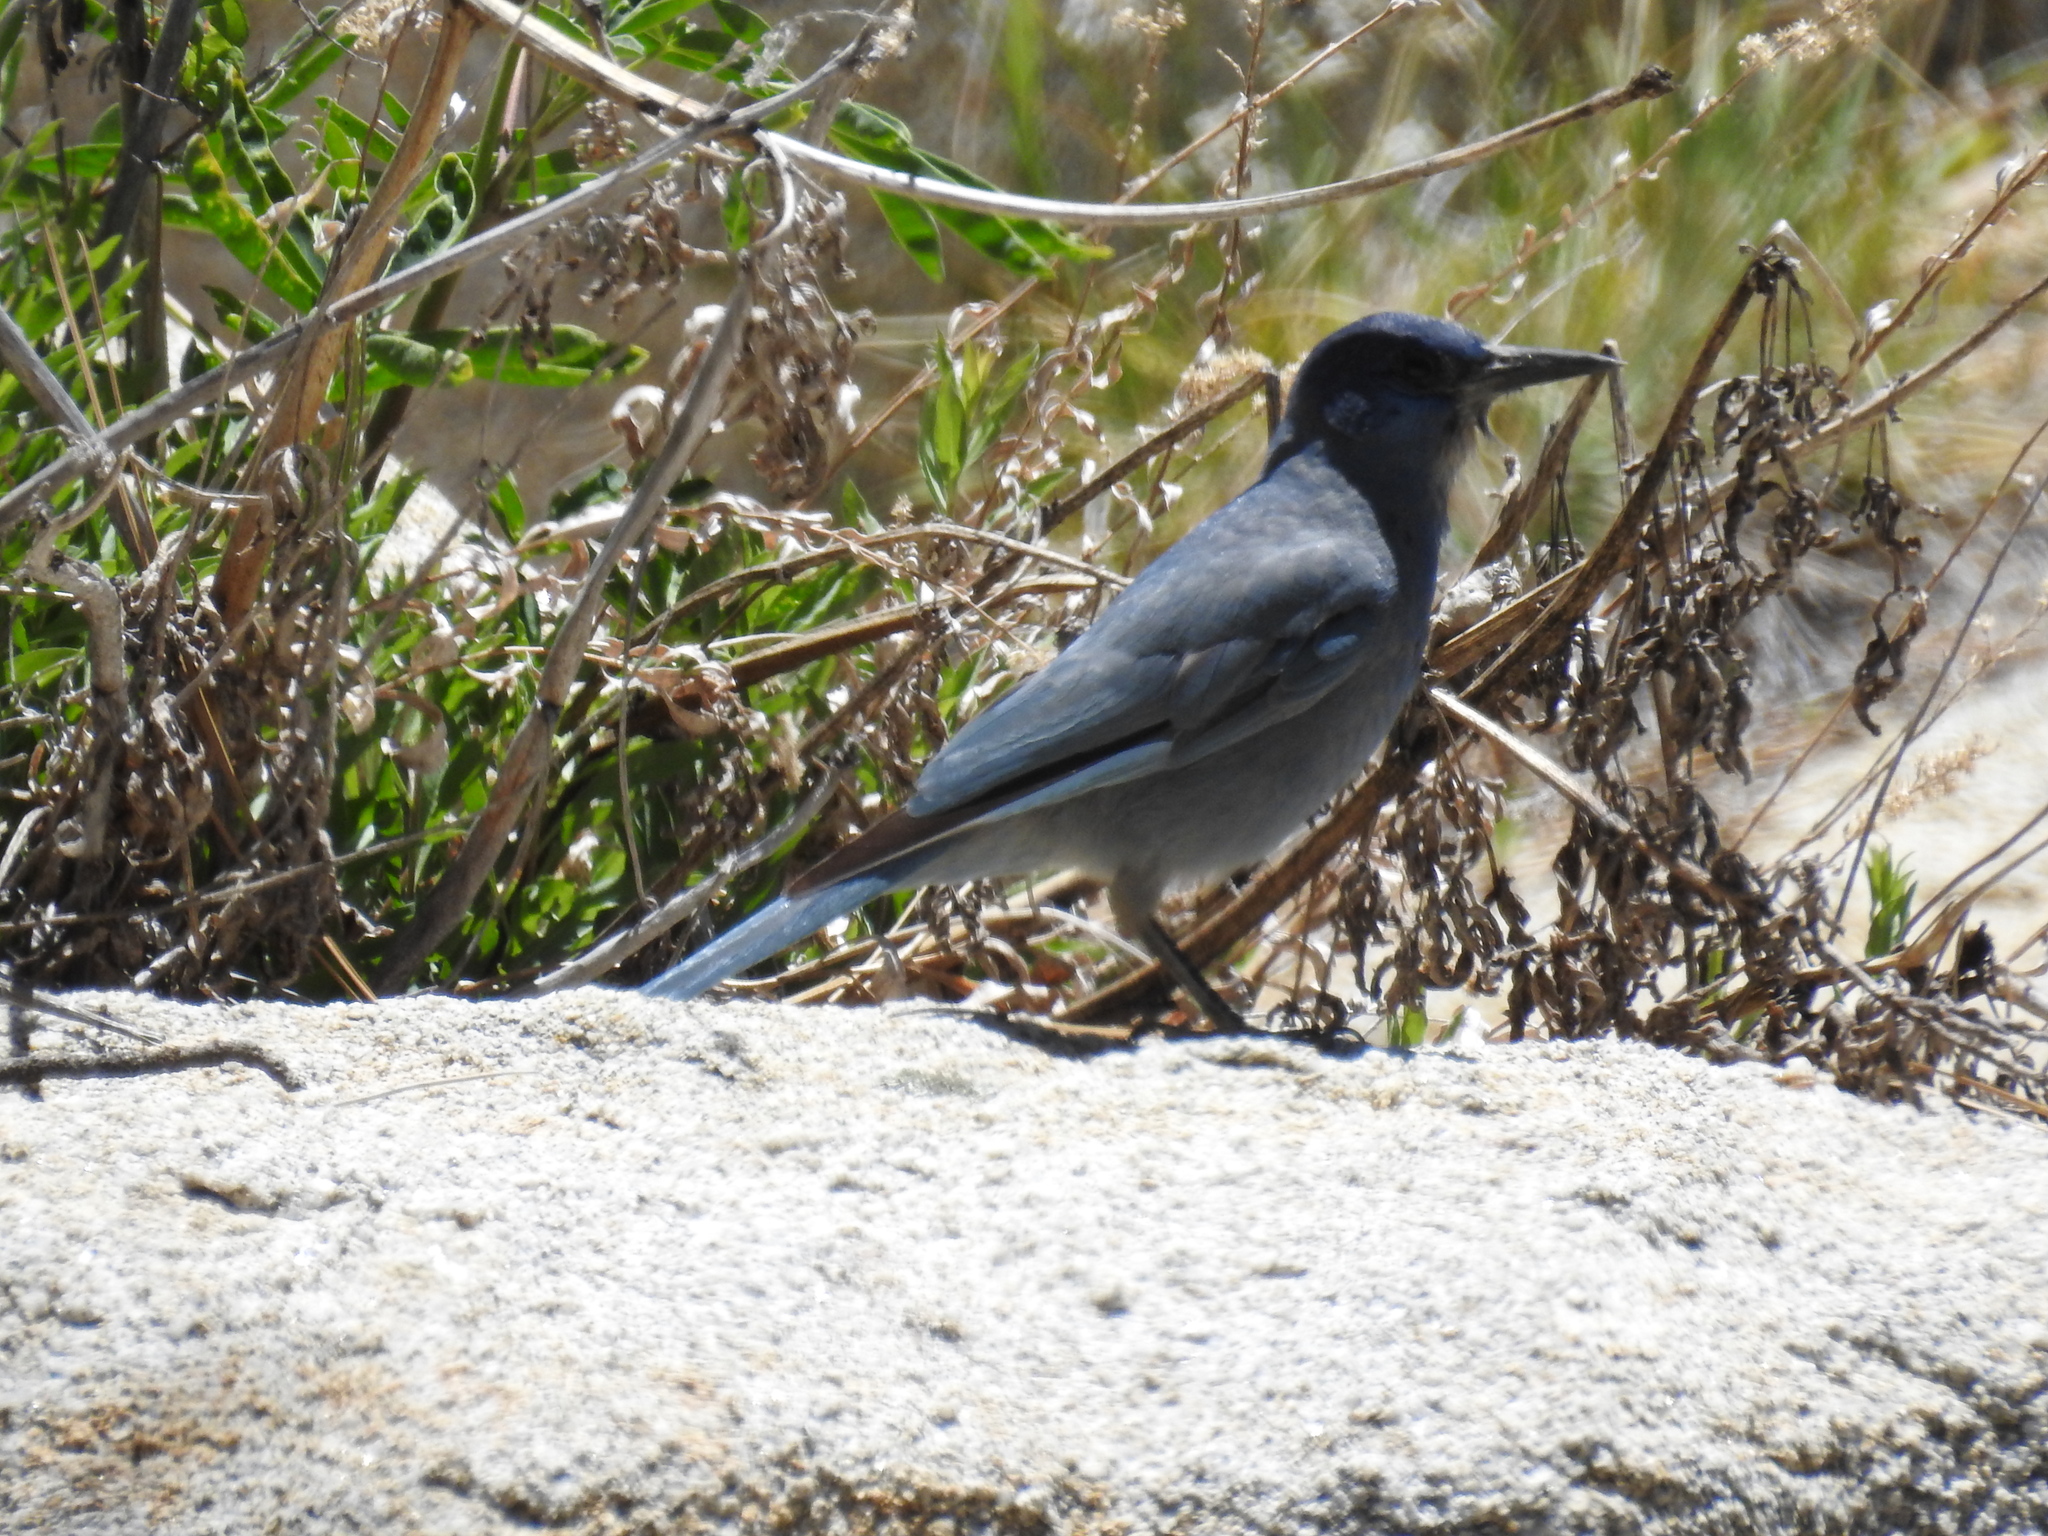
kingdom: Animalia
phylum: Chordata
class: Aves
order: Passeriformes
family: Corvidae
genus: Gymnorhinus
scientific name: Gymnorhinus cyanocephalus
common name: Pinyon jay
